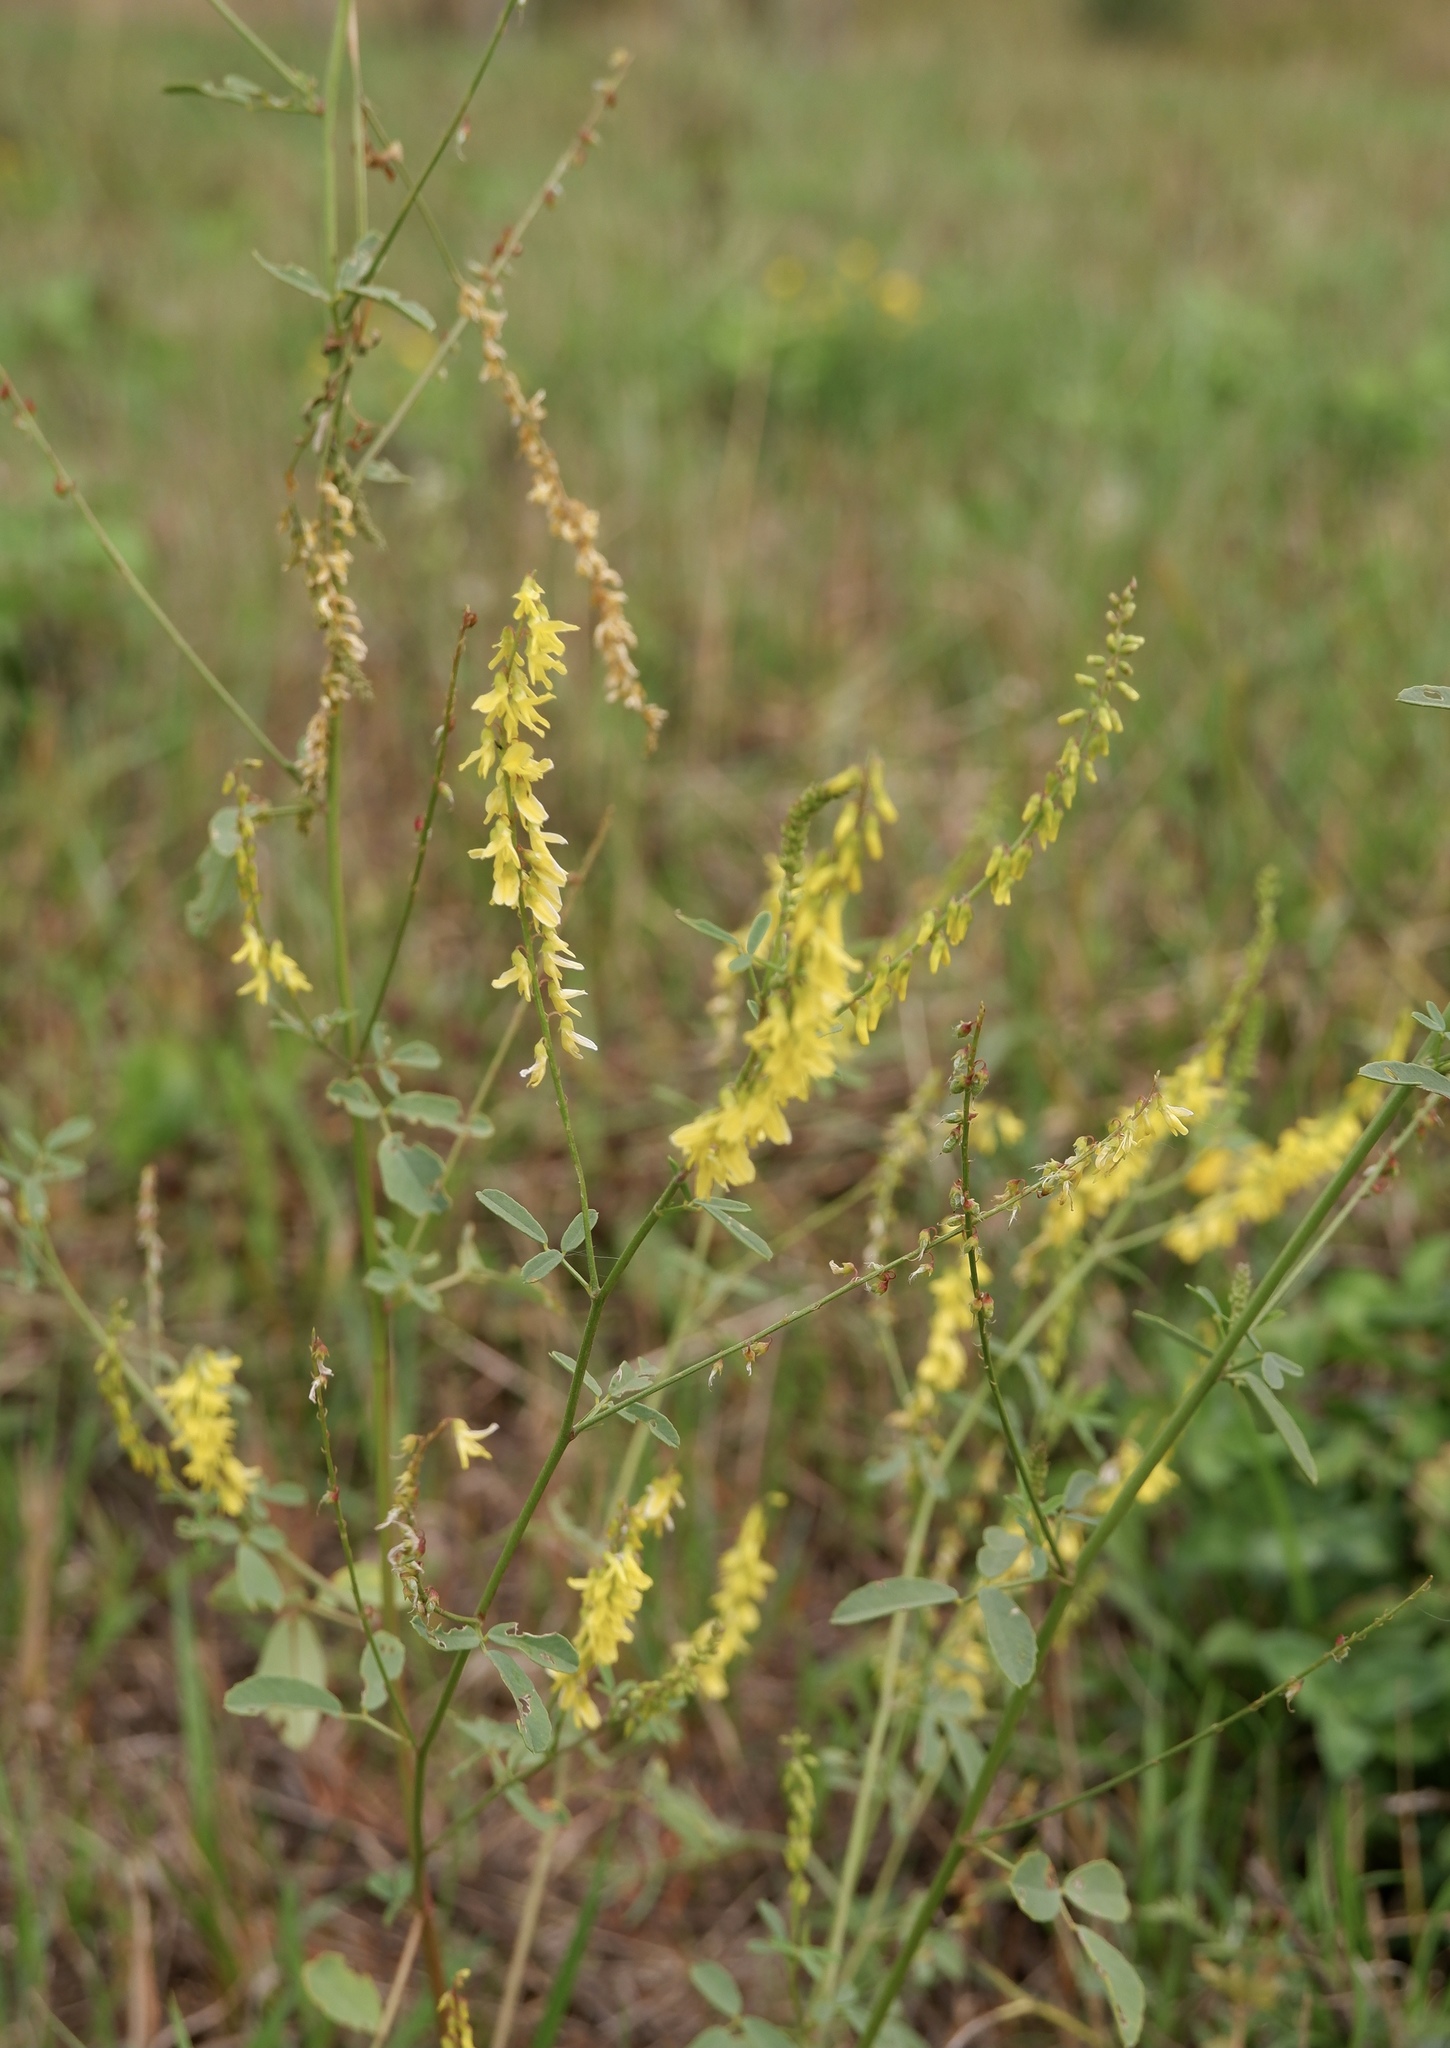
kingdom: Plantae
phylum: Tracheophyta
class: Magnoliopsida
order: Fabales
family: Fabaceae
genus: Melilotus
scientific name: Melilotus officinalis
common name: Sweetclover
